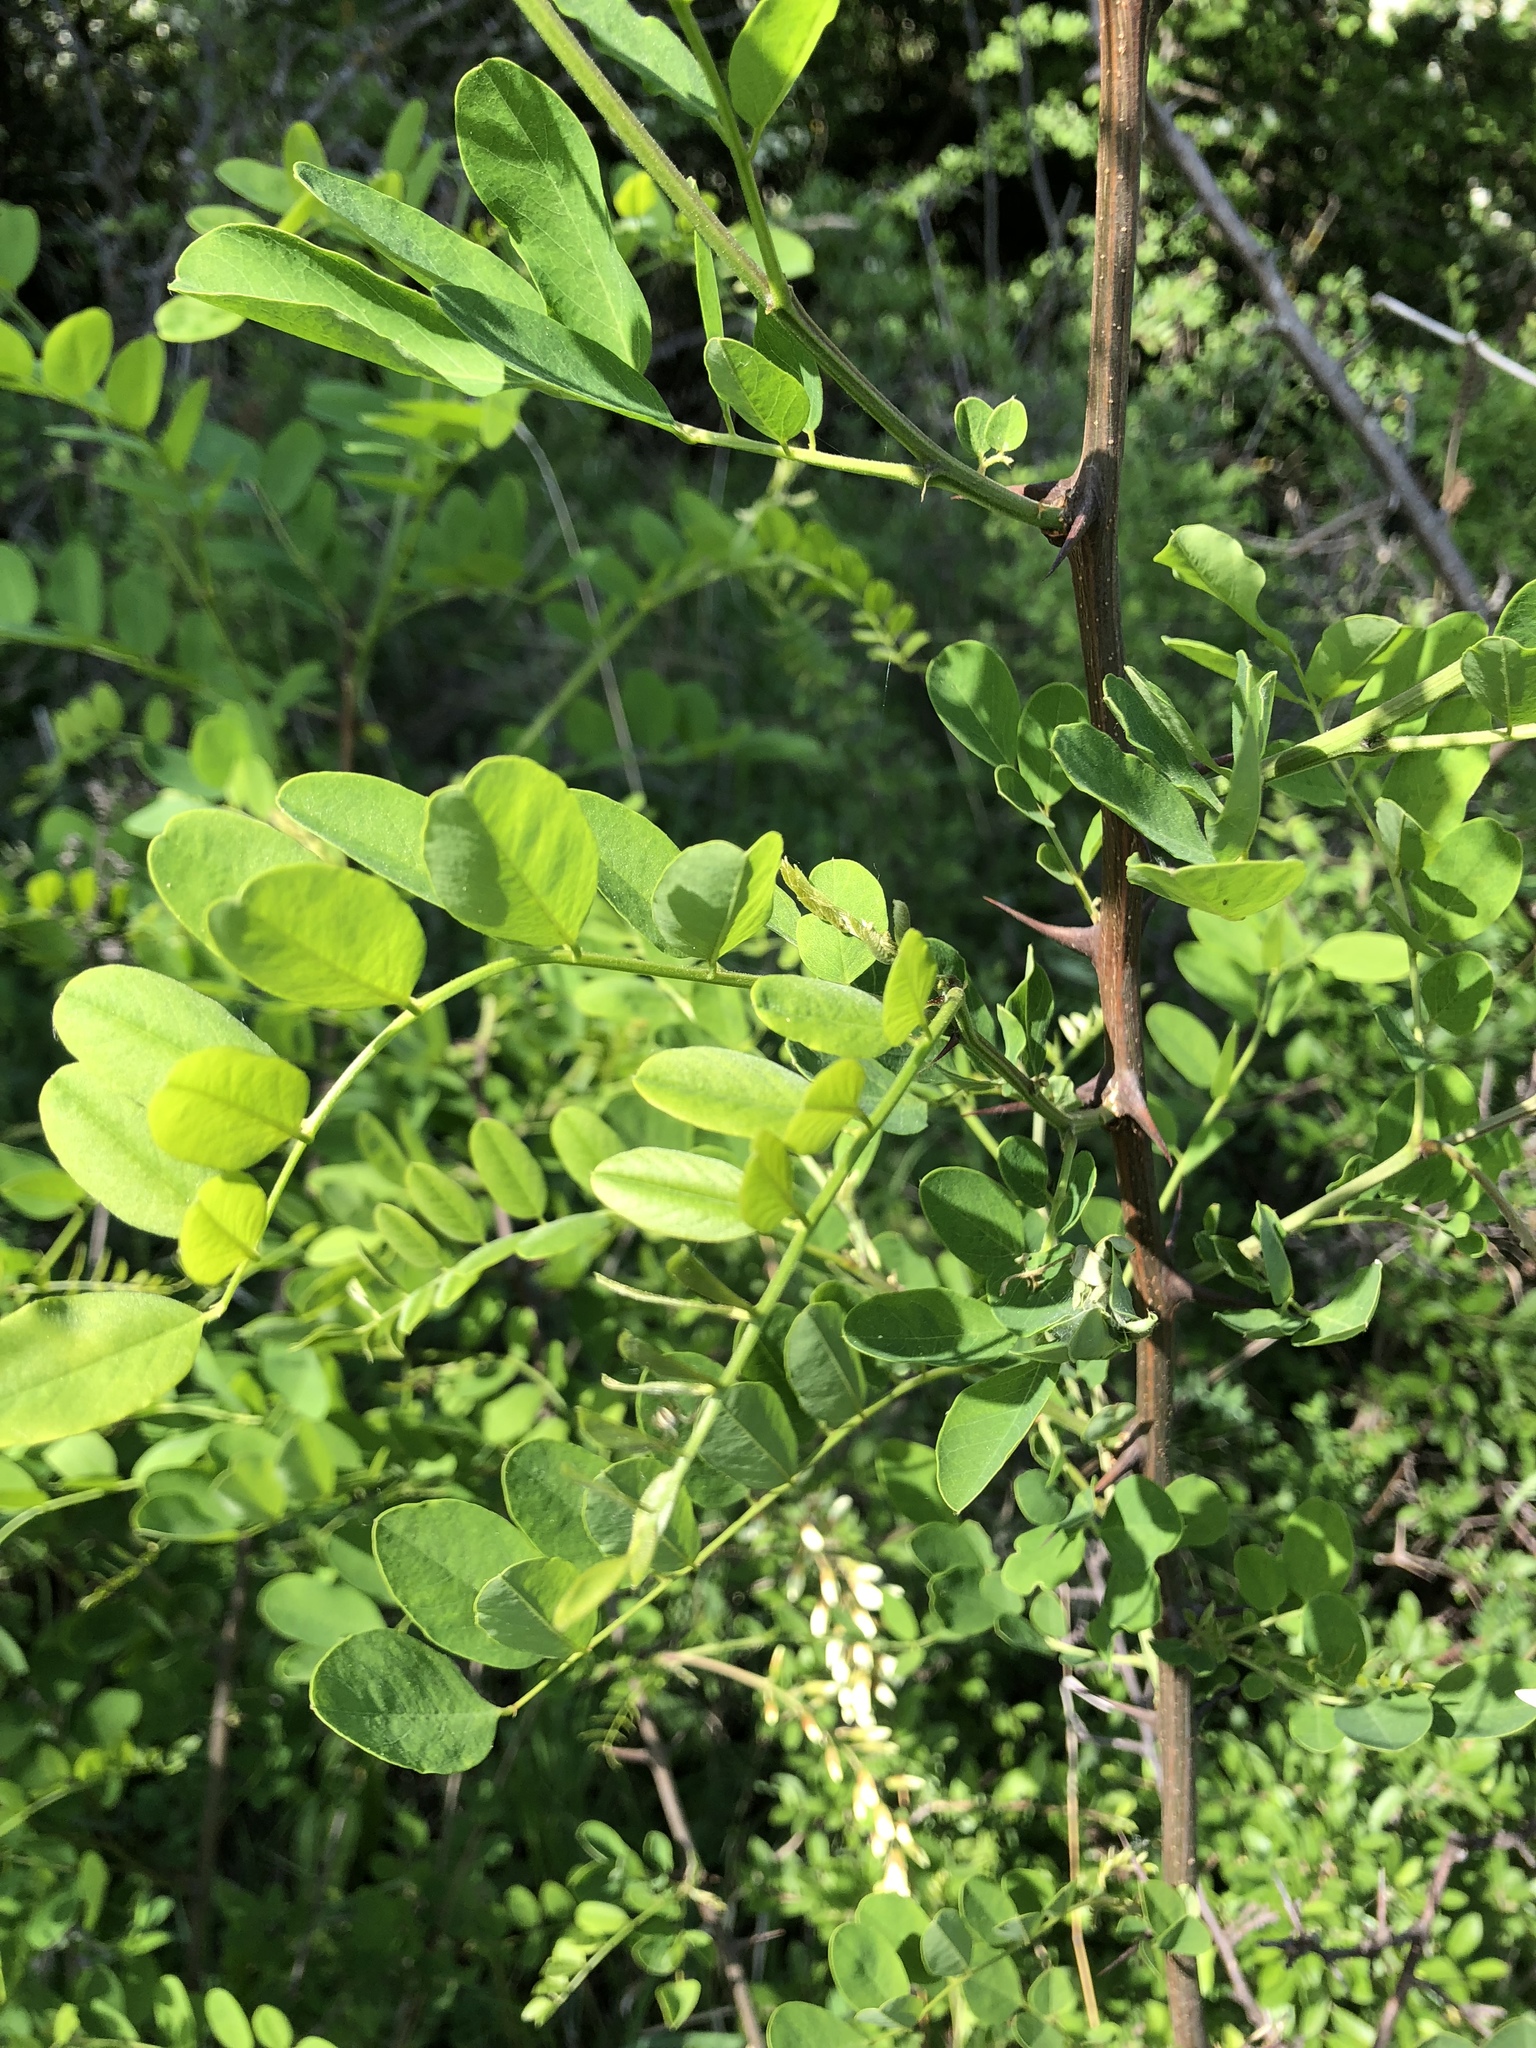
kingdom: Plantae
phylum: Tracheophyta
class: Magnoliopsida
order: Fabales
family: Fabaceae
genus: Robinia
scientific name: Robinia pseudoacacia
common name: Black locust
